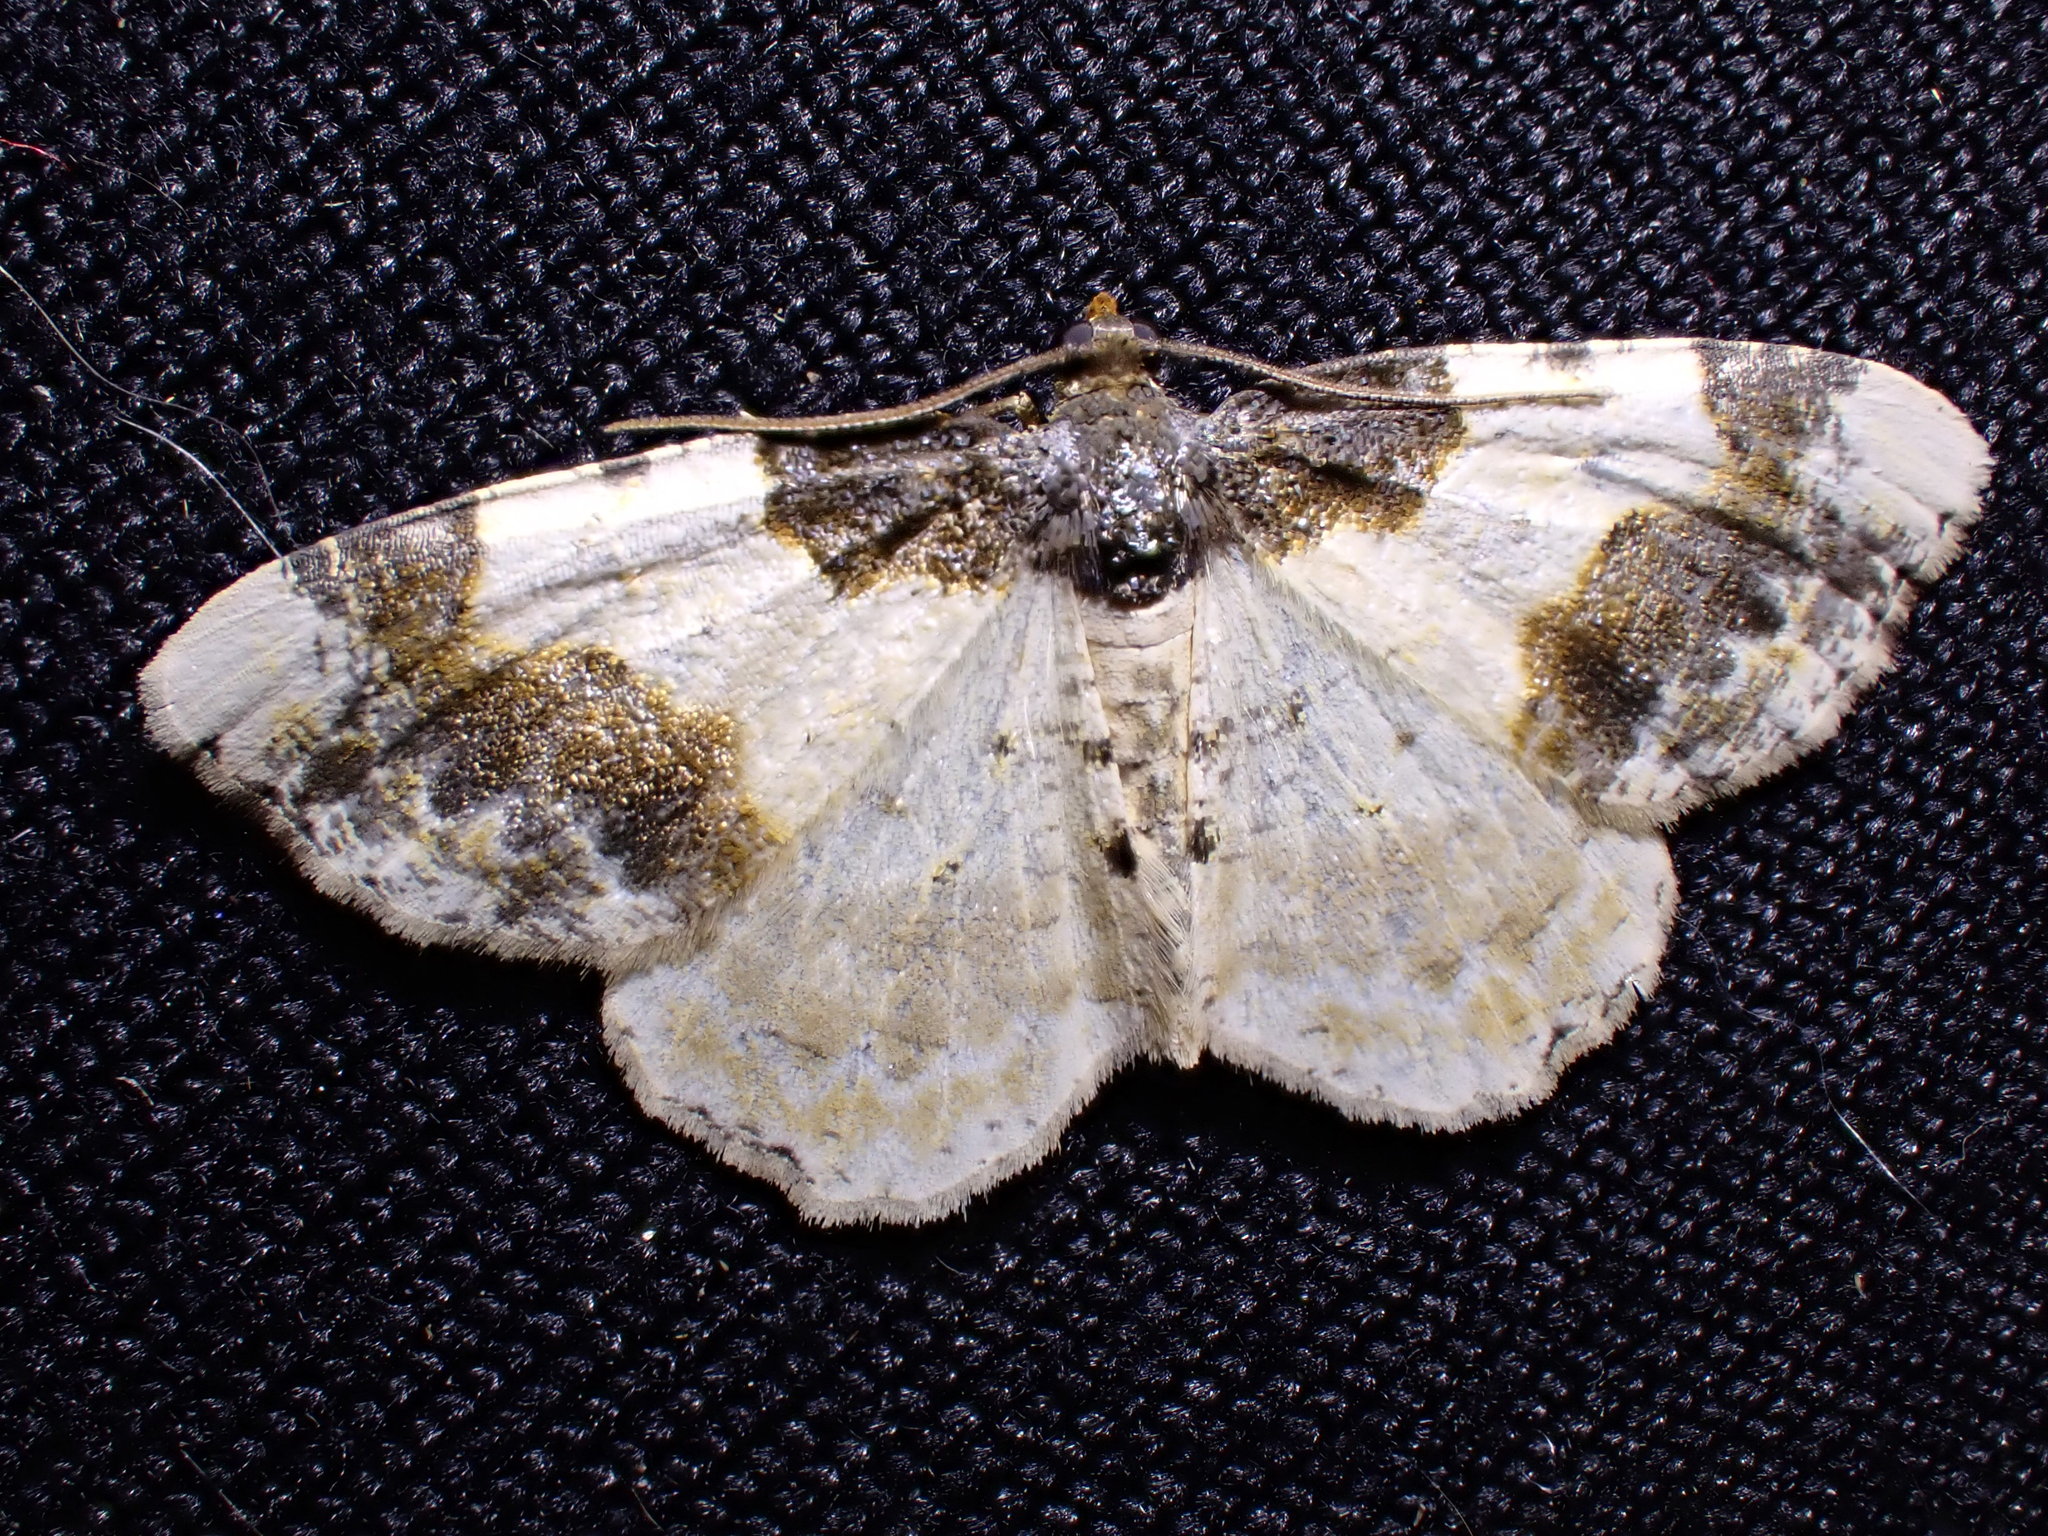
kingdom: Animalia
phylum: Arthropoda
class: Insecta
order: Lepidoptera
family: Geometridae
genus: Ligdia
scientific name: Ligdia adustata
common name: Scorched carpet
